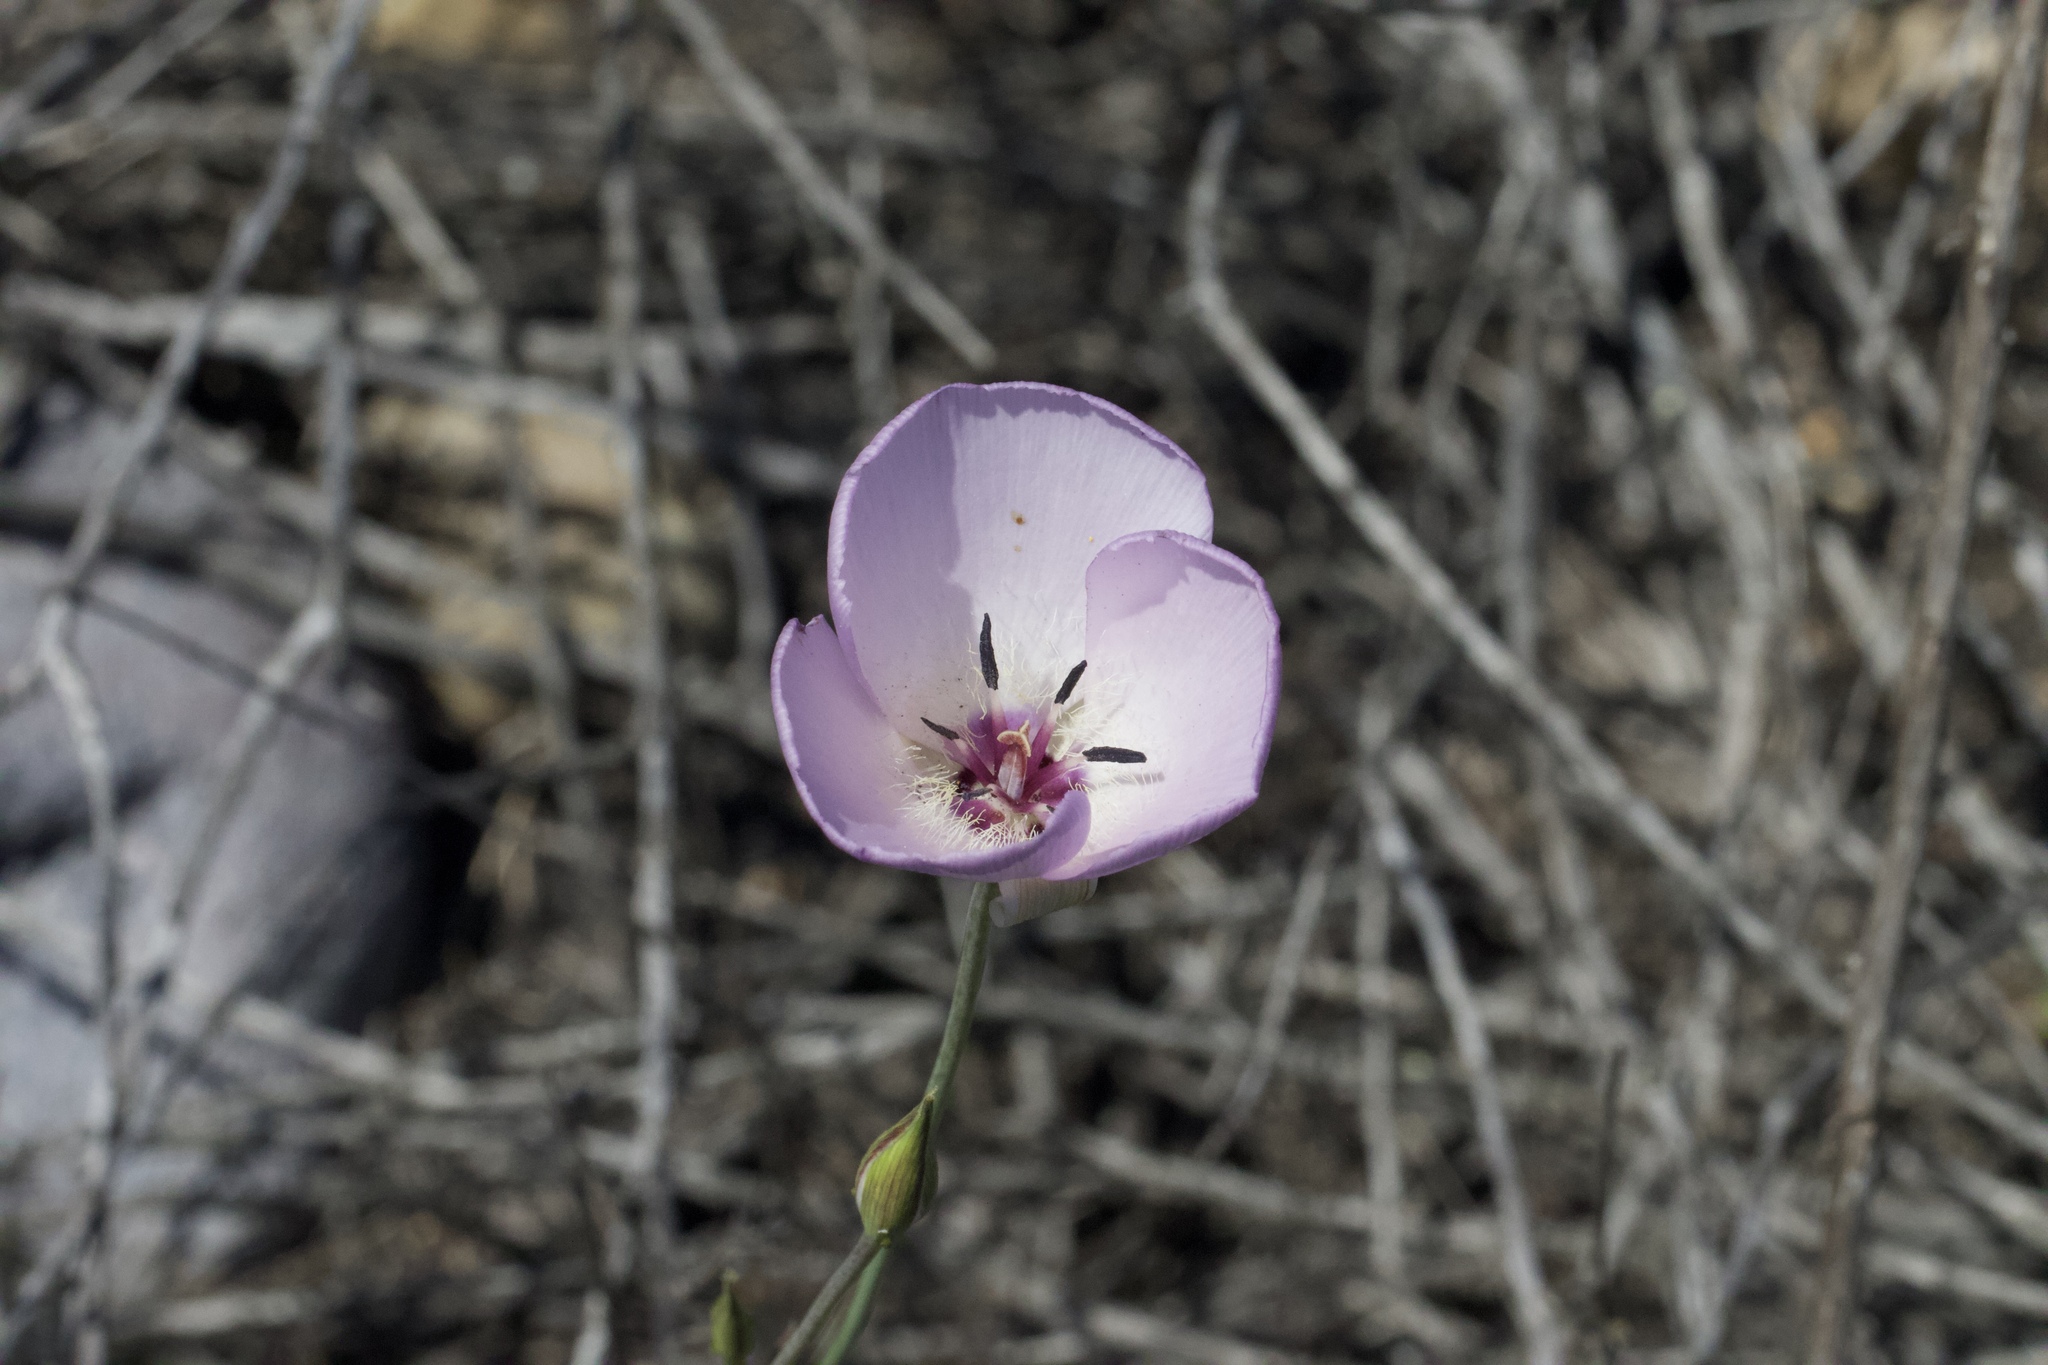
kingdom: Plantae
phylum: Tracheophyta
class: Liliopsida
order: Liliales
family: Liliaceae
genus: Calochortus
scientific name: Calochortus splendens
